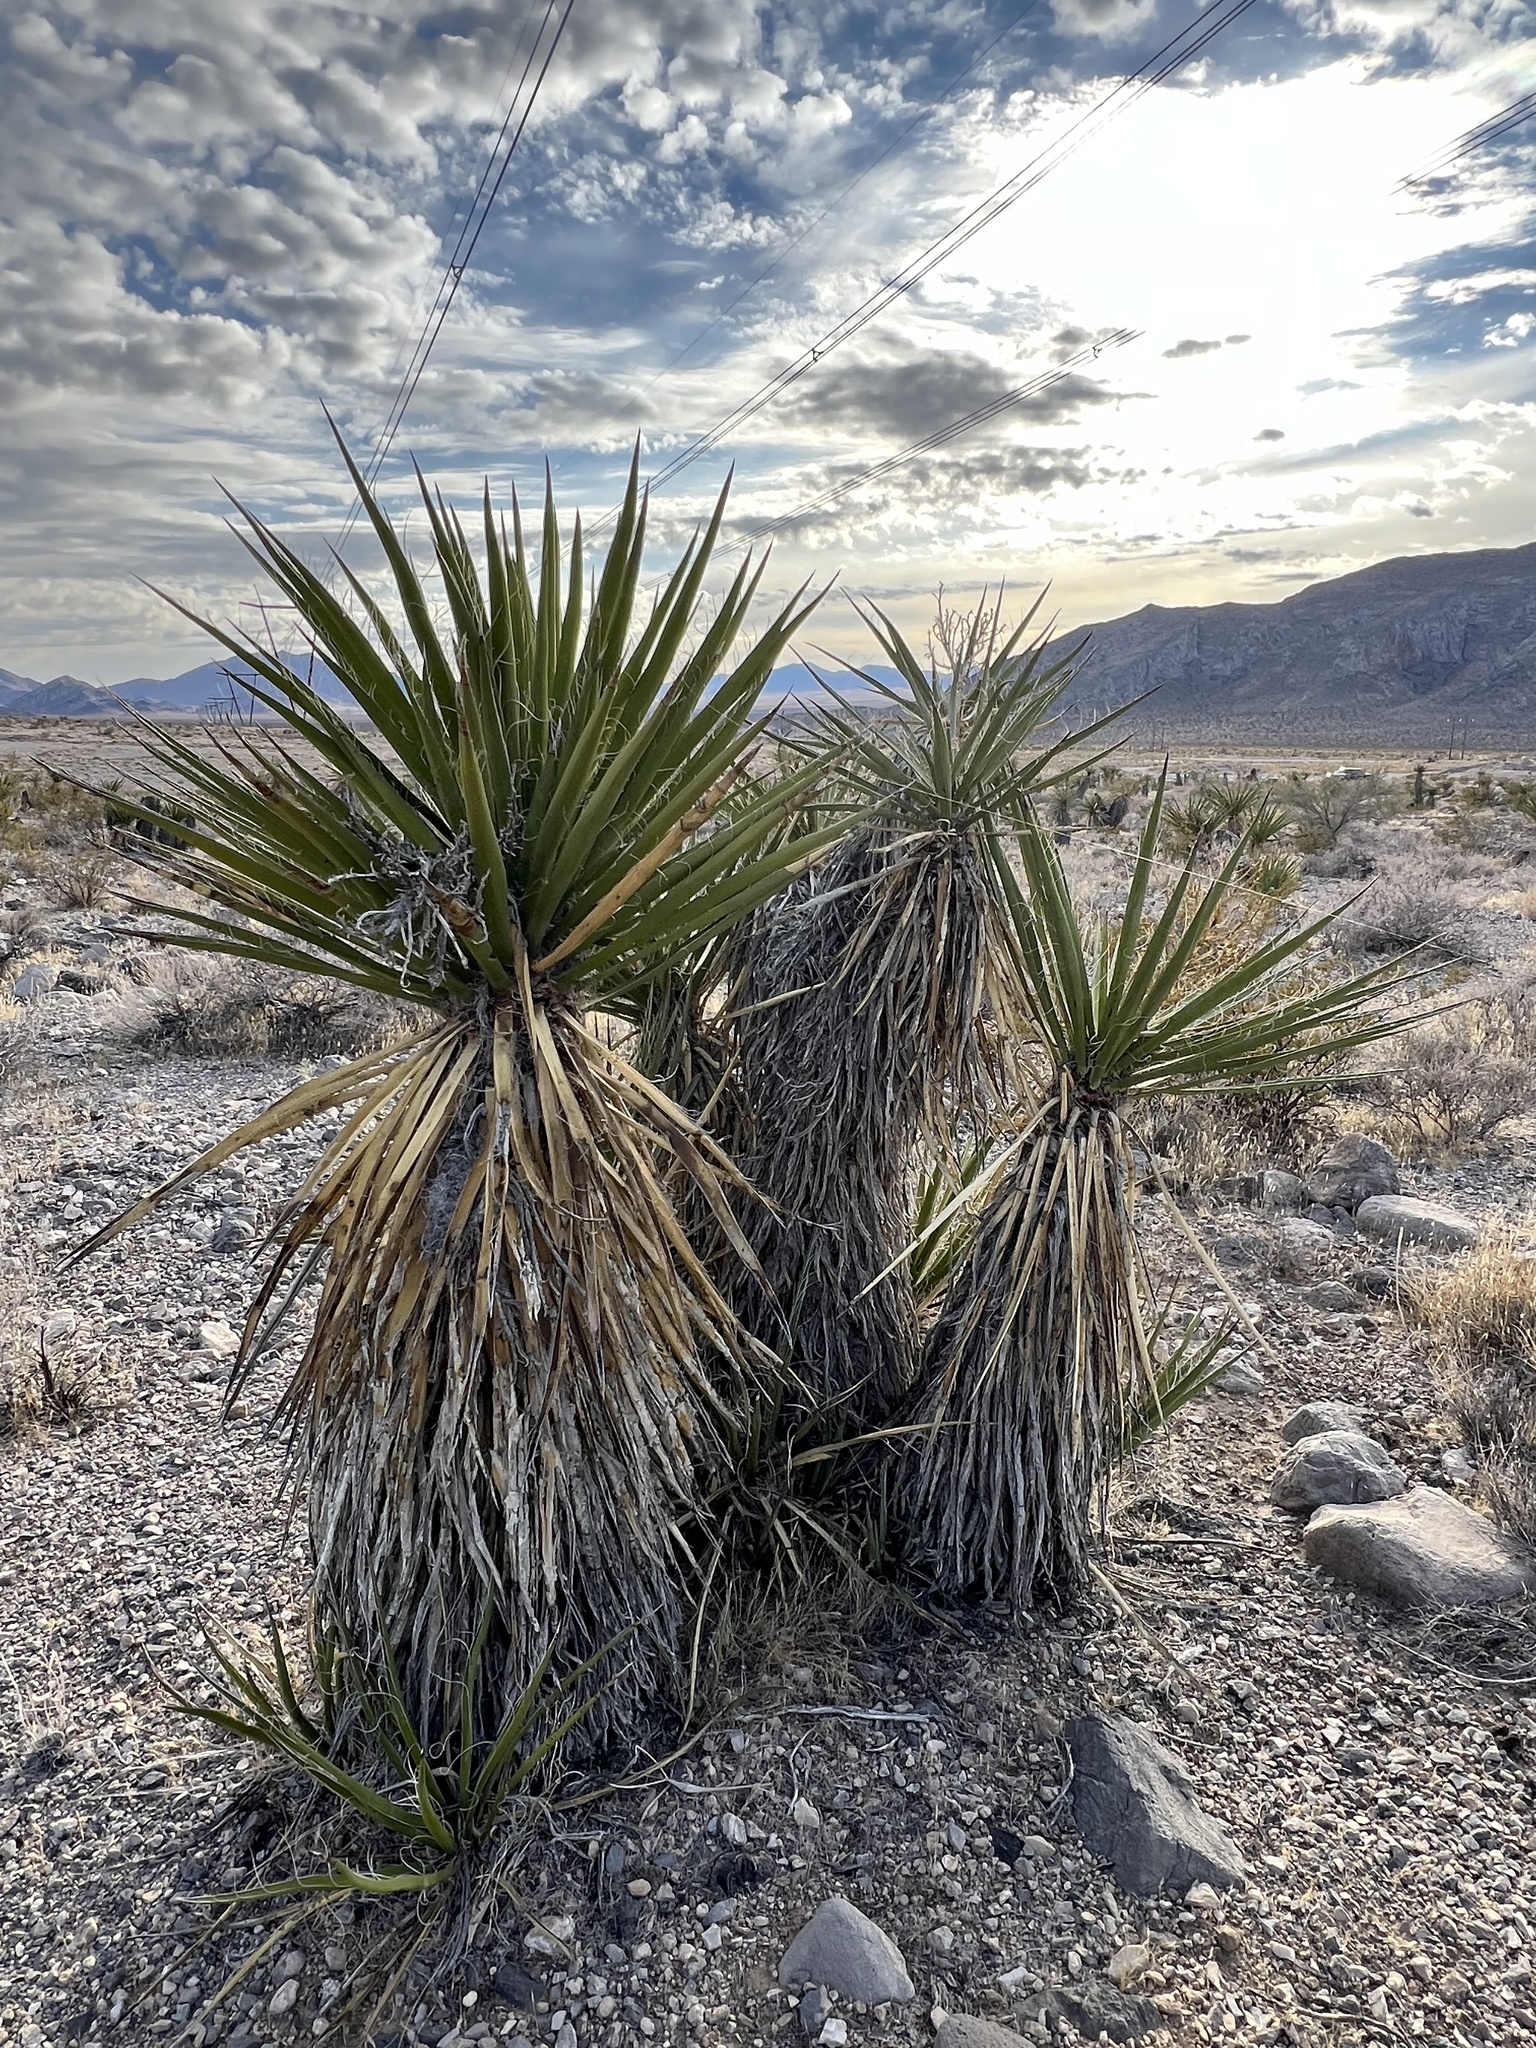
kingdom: Plantae
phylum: Tracheophyta
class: Liliopsida
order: Asparagales
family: Asparagaceae
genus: Yucca
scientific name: Yucca schidigera
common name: Mojave yucca
